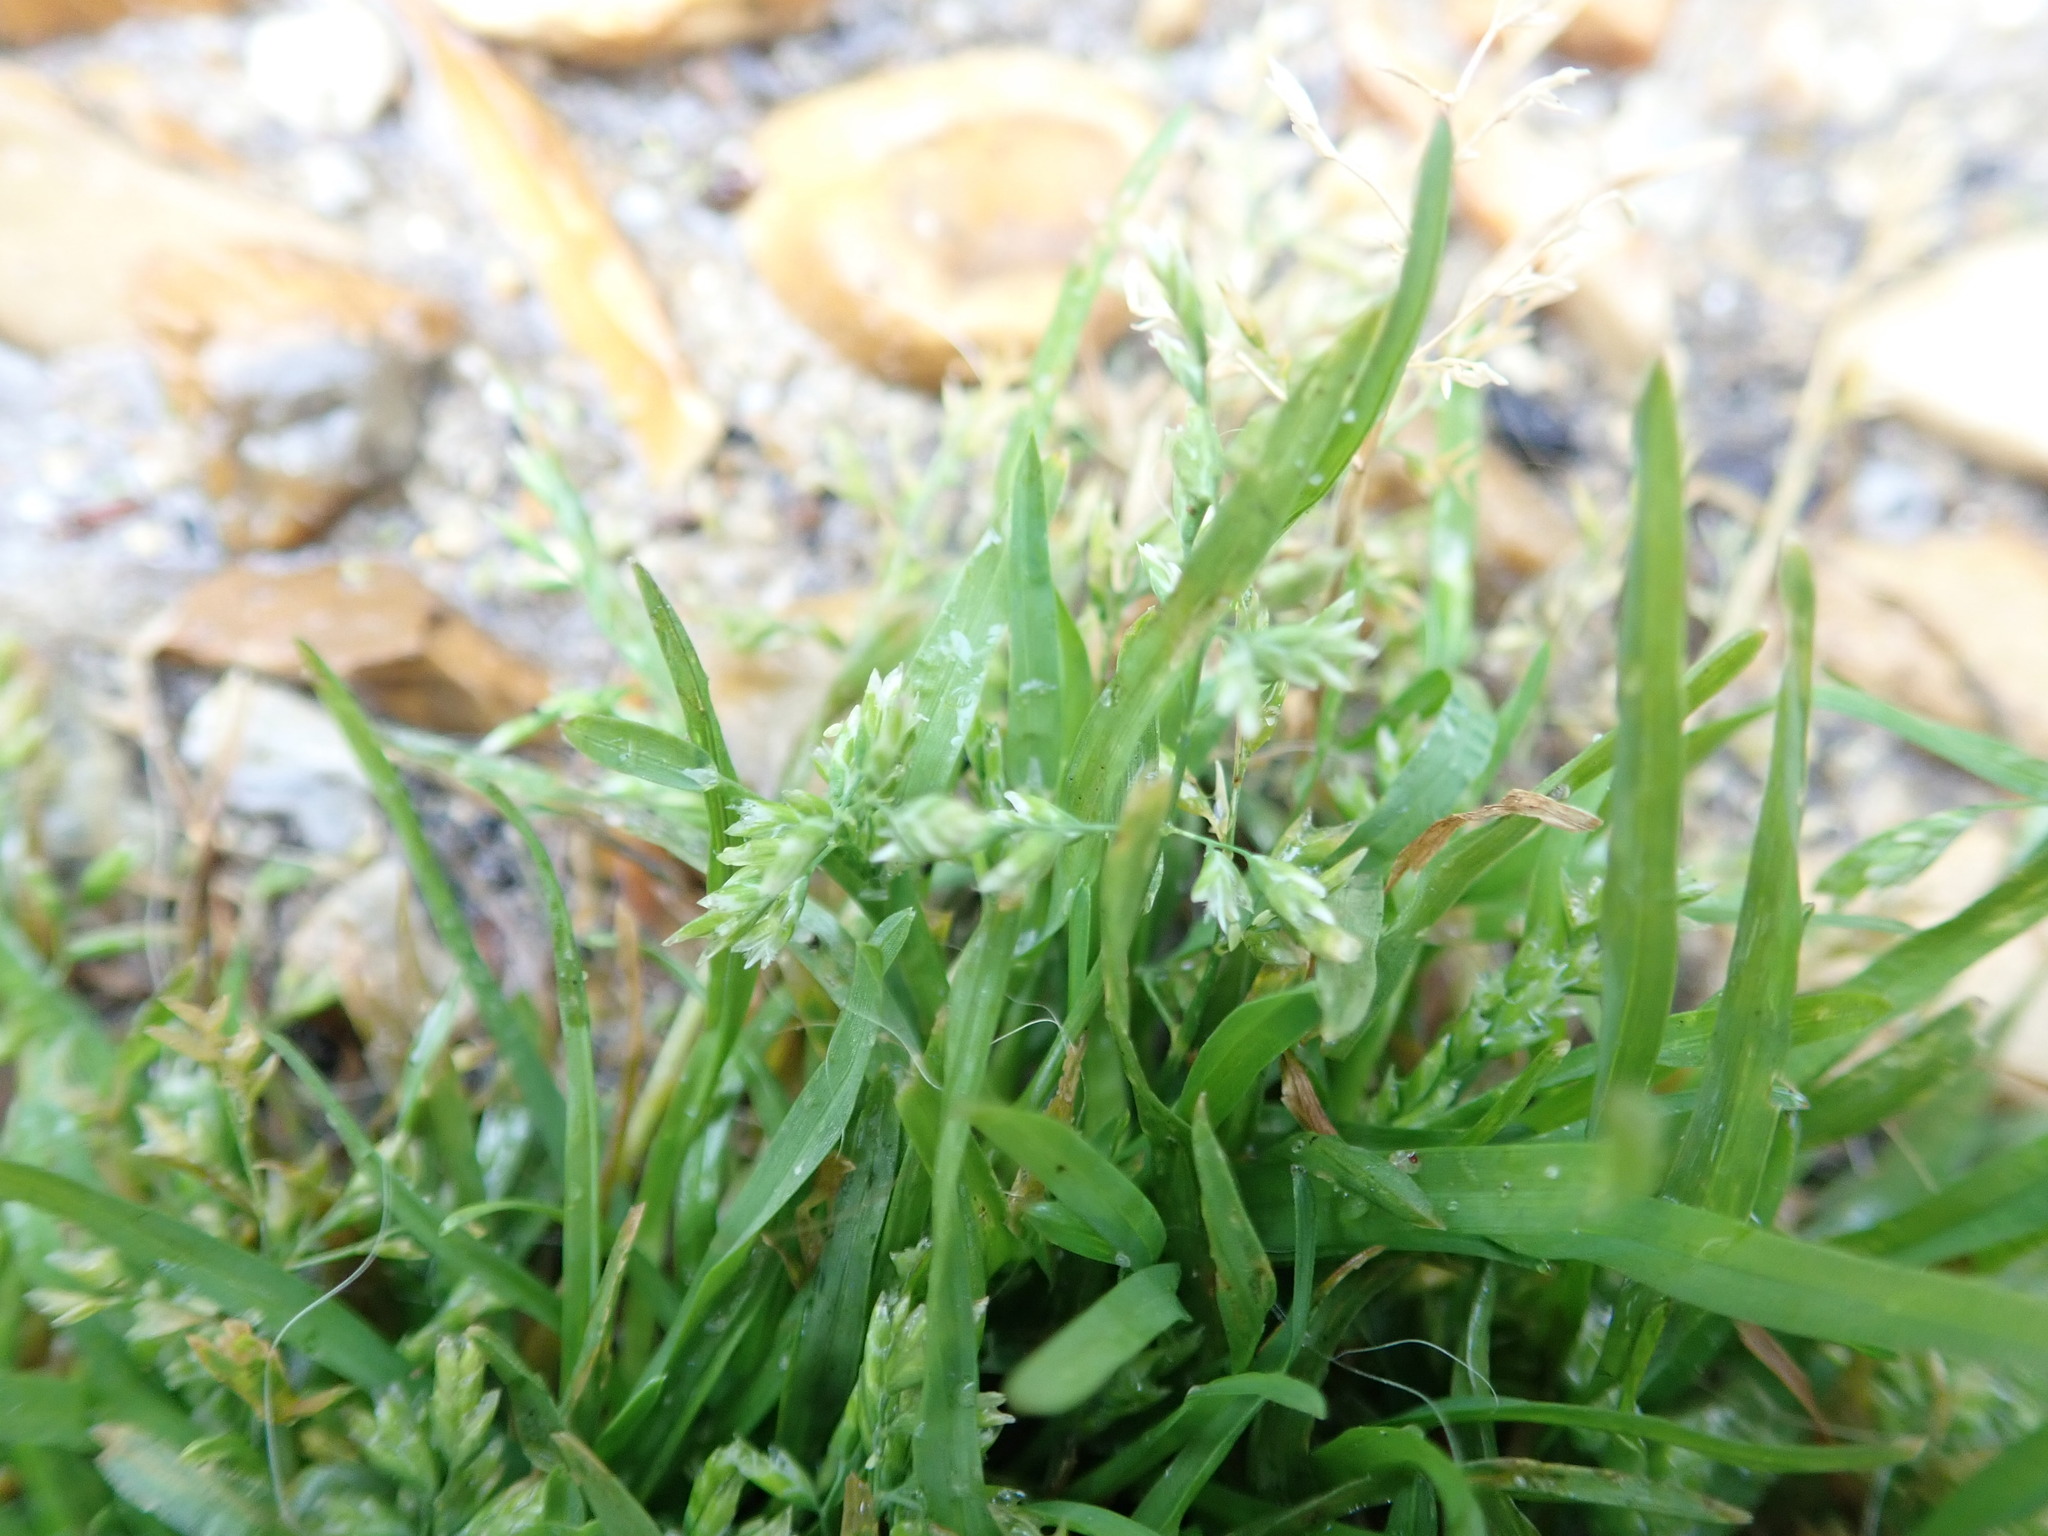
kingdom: Plantae
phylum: Tracheophyta
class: Liliopsida
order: Poales
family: Poaceae
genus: Poa
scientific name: Poa annua
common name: Annual bluegrass
